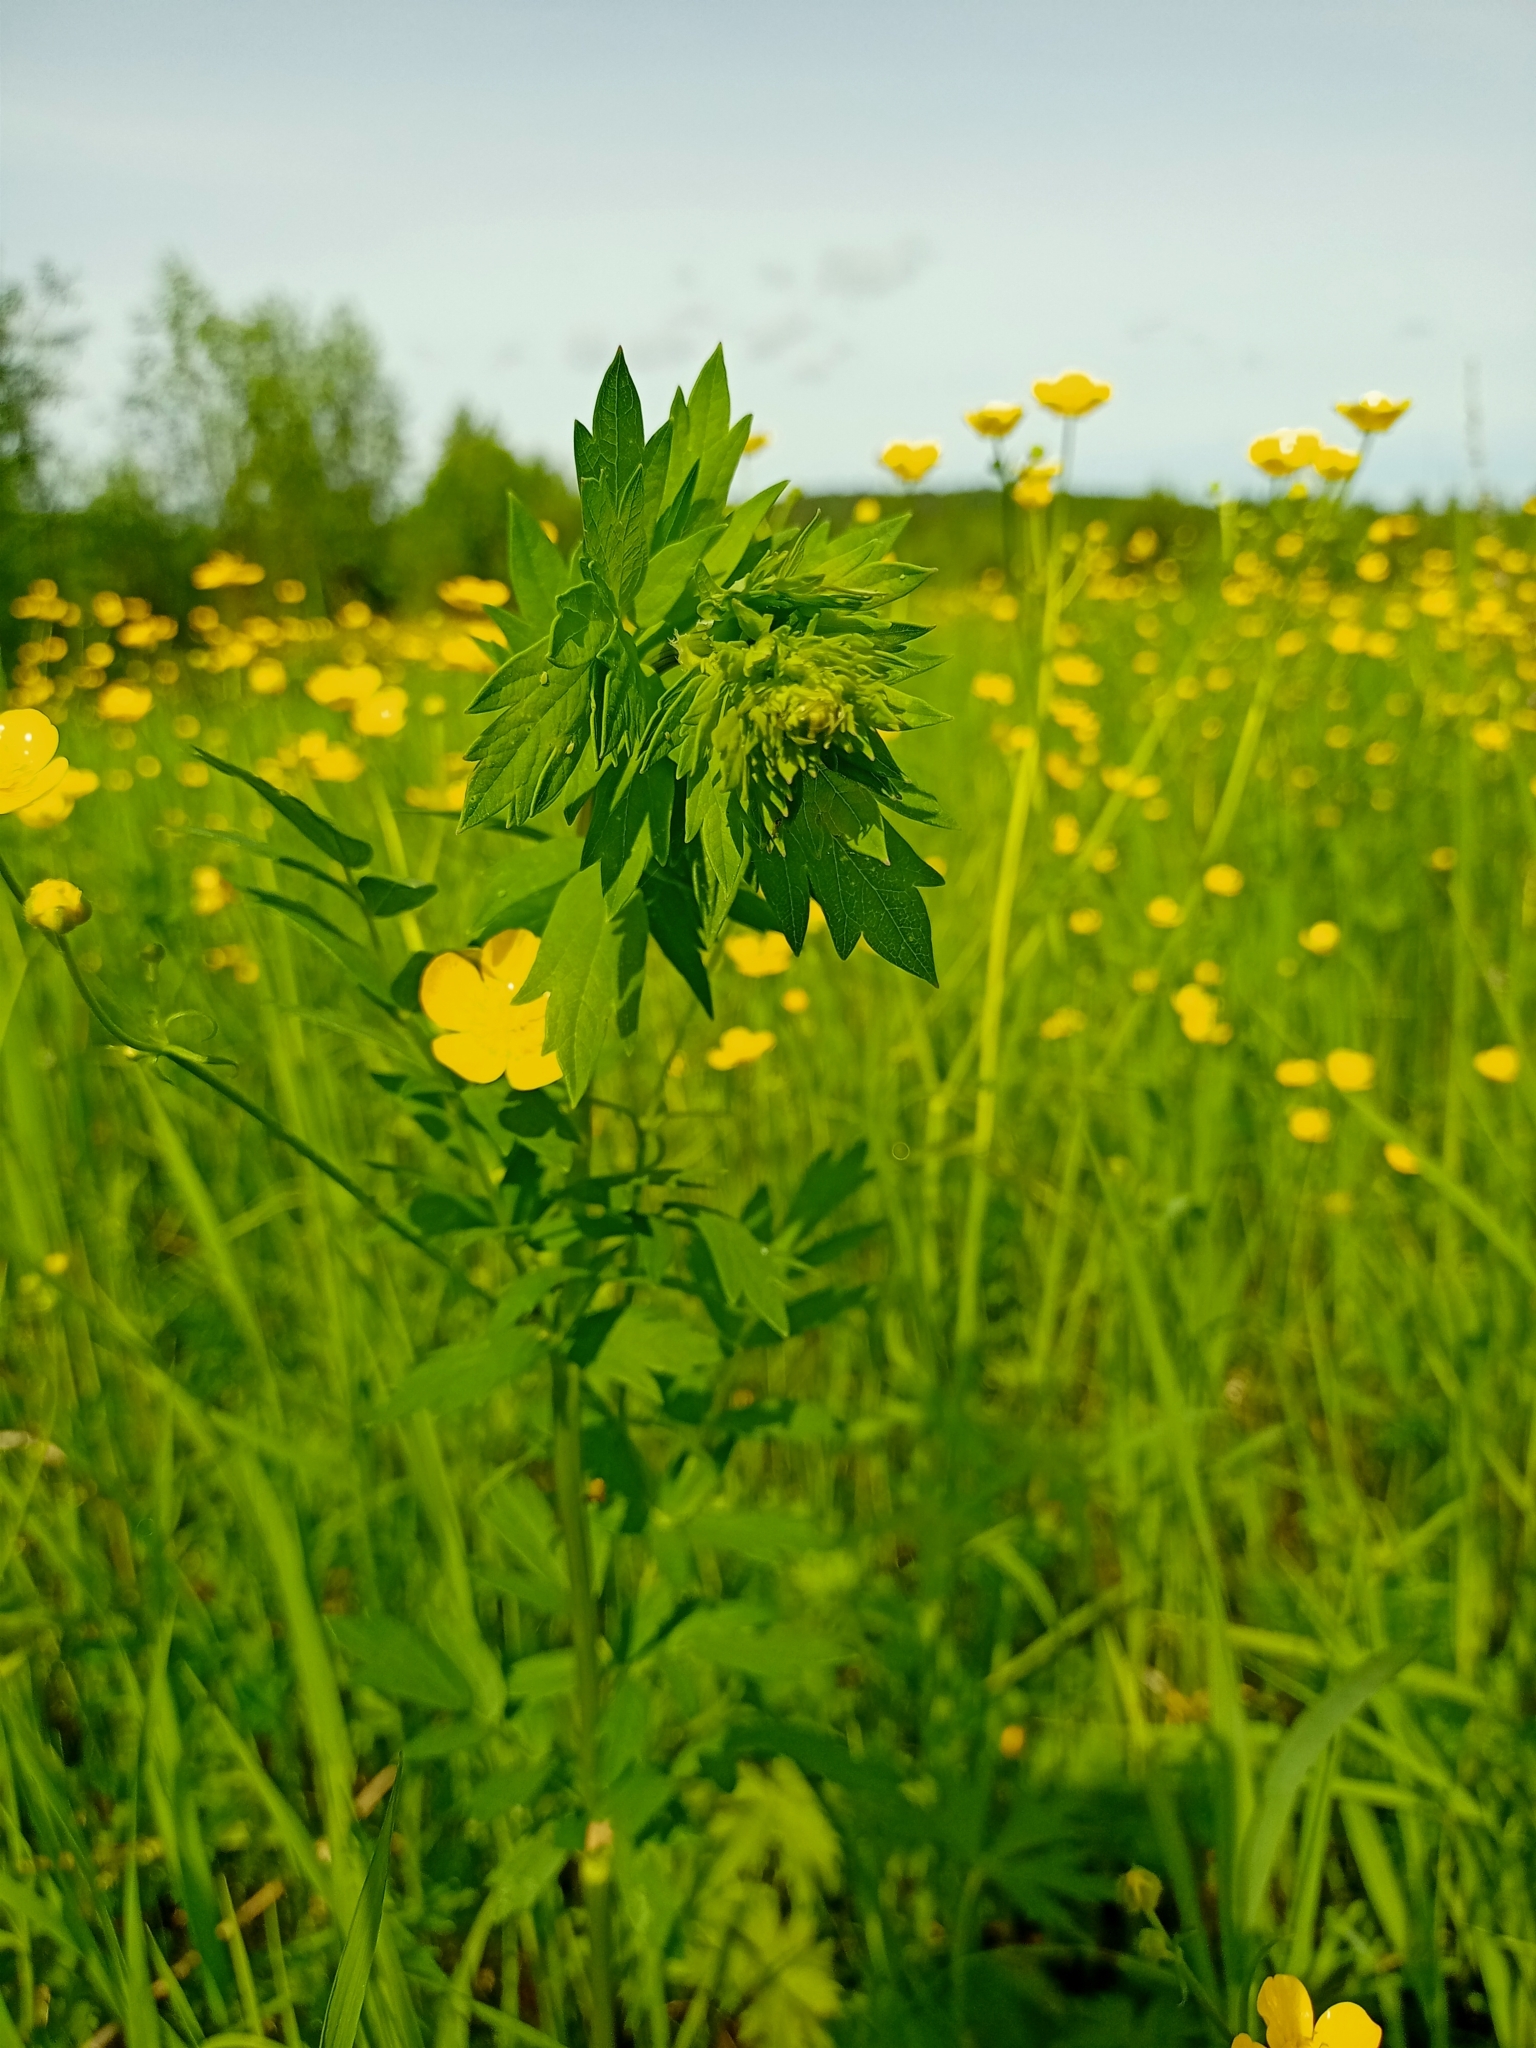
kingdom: Plantae
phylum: Tracheophyta
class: Magnoliopsida
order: Ranunculales
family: Ranunculaceae
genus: Thalictrum
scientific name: Thalictrum simplex
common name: Small meadow-rue
